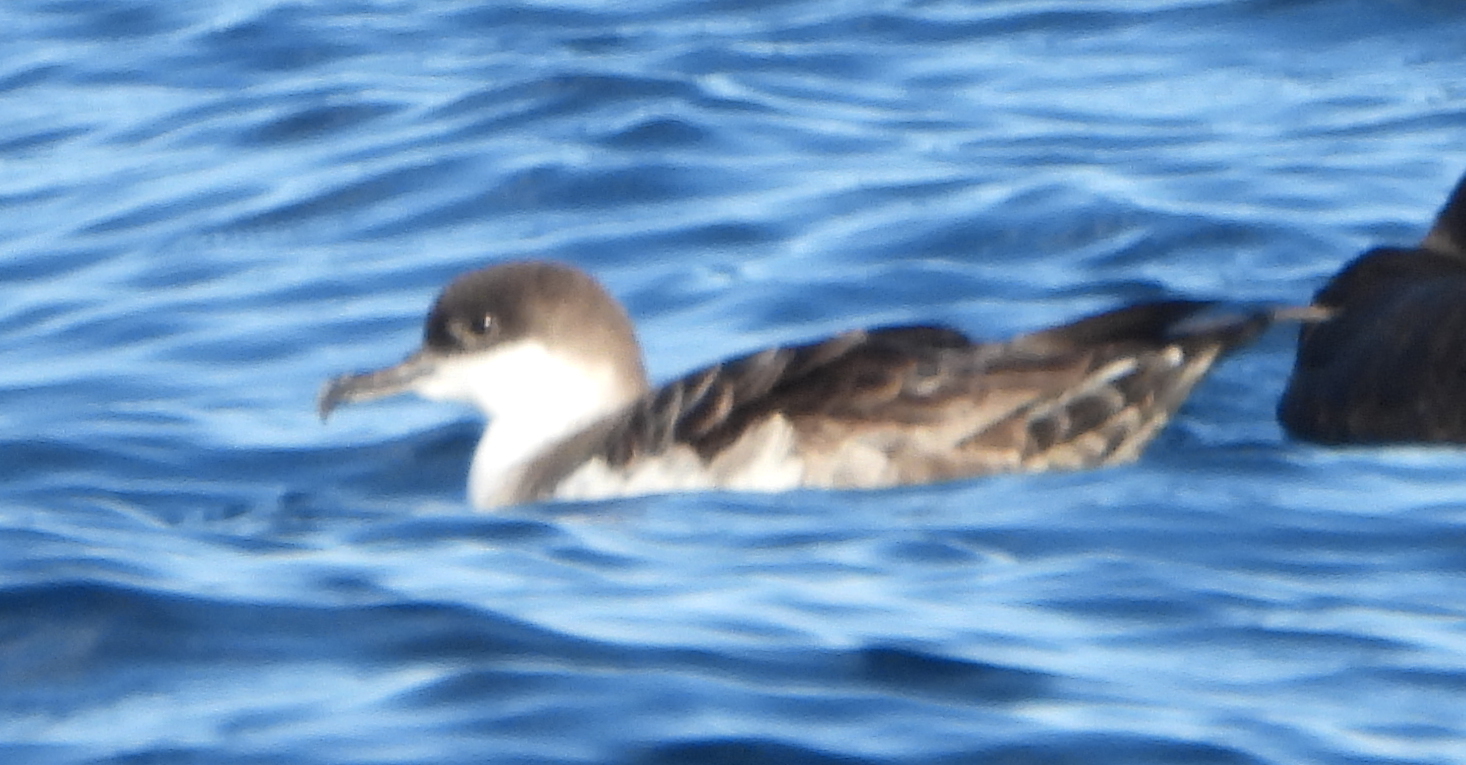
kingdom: Animalia
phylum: Chordata
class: Aves
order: Procellariiformes
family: Procellariidae
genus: Puffinus
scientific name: Puffinus gravis
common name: Great shearwater
